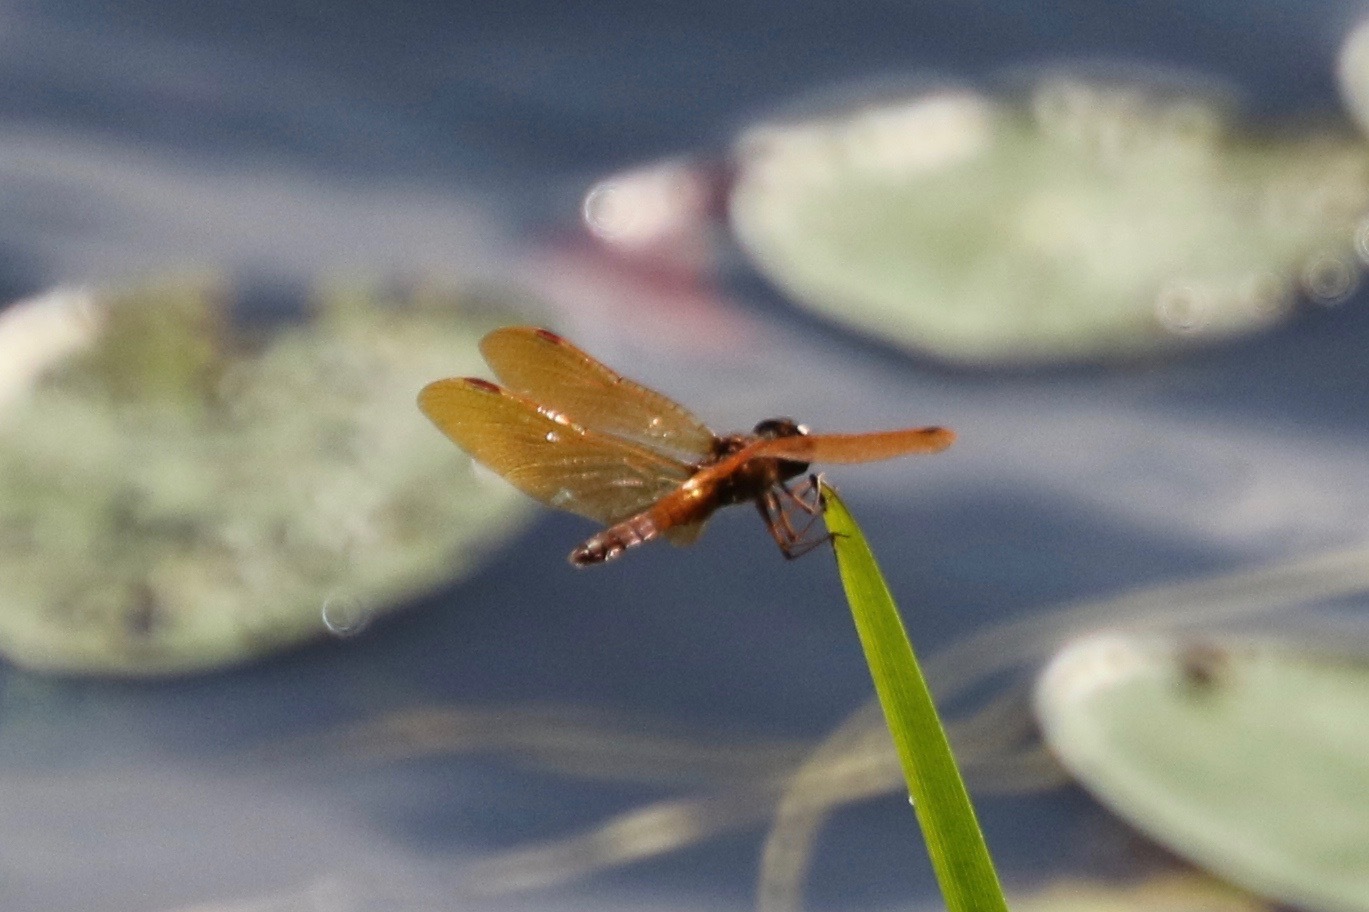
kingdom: Animalia
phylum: Arthropoda
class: Insecta
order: Odonata
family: Libellulidae
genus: Perithemis
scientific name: Perithemis tenera
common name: Eastern amberwing
